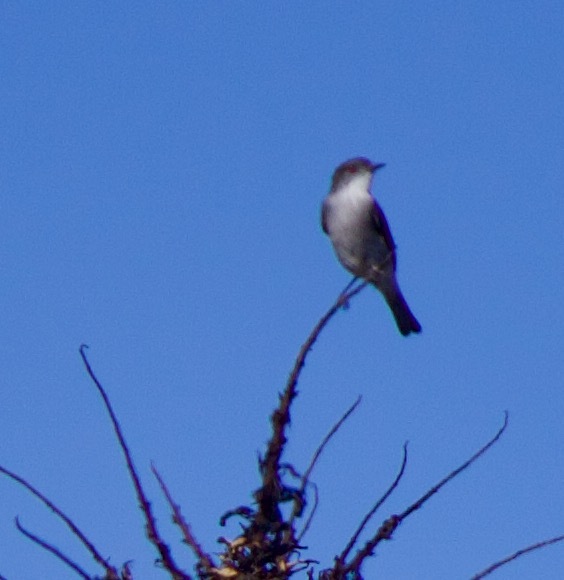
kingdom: Animalia
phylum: Chordata
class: Aves
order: Passeriformes
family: Tyrannidae
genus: Xolmis
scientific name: Xolmis pyrope
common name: Fire-eyed diucon
